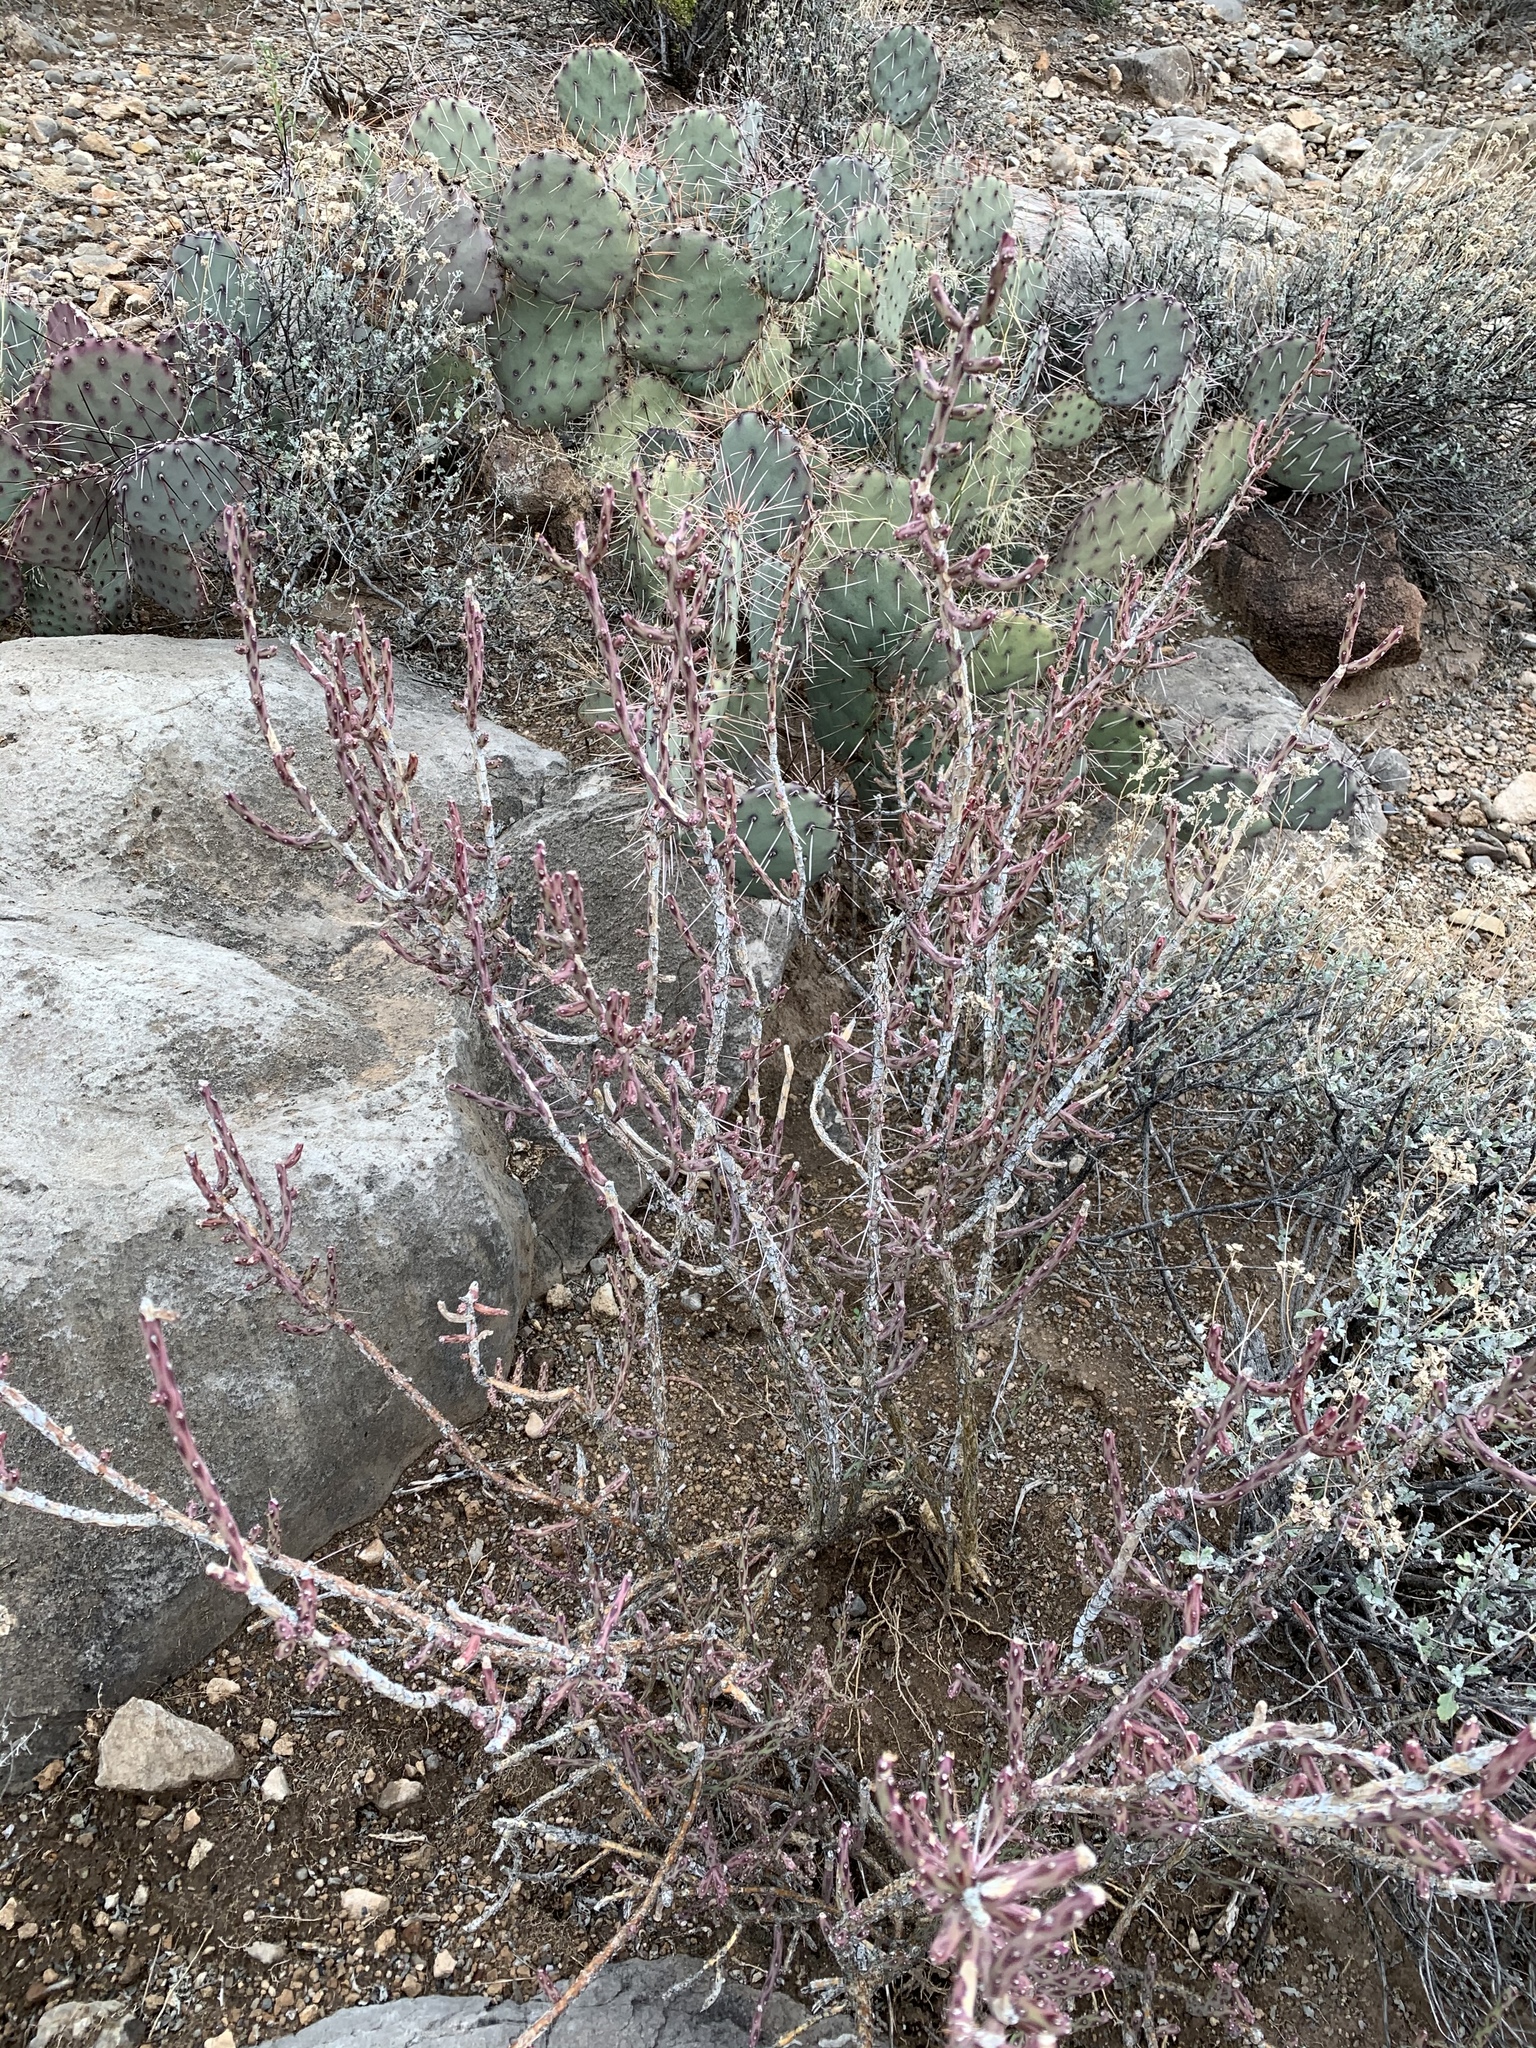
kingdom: Plantae
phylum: Tracheophyta
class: Magnoliopsida
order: Caryophyllales
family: Cactaceae
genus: Cylindropuntia
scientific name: Cylindropuntia leptocaulis
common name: Christmas cactus
